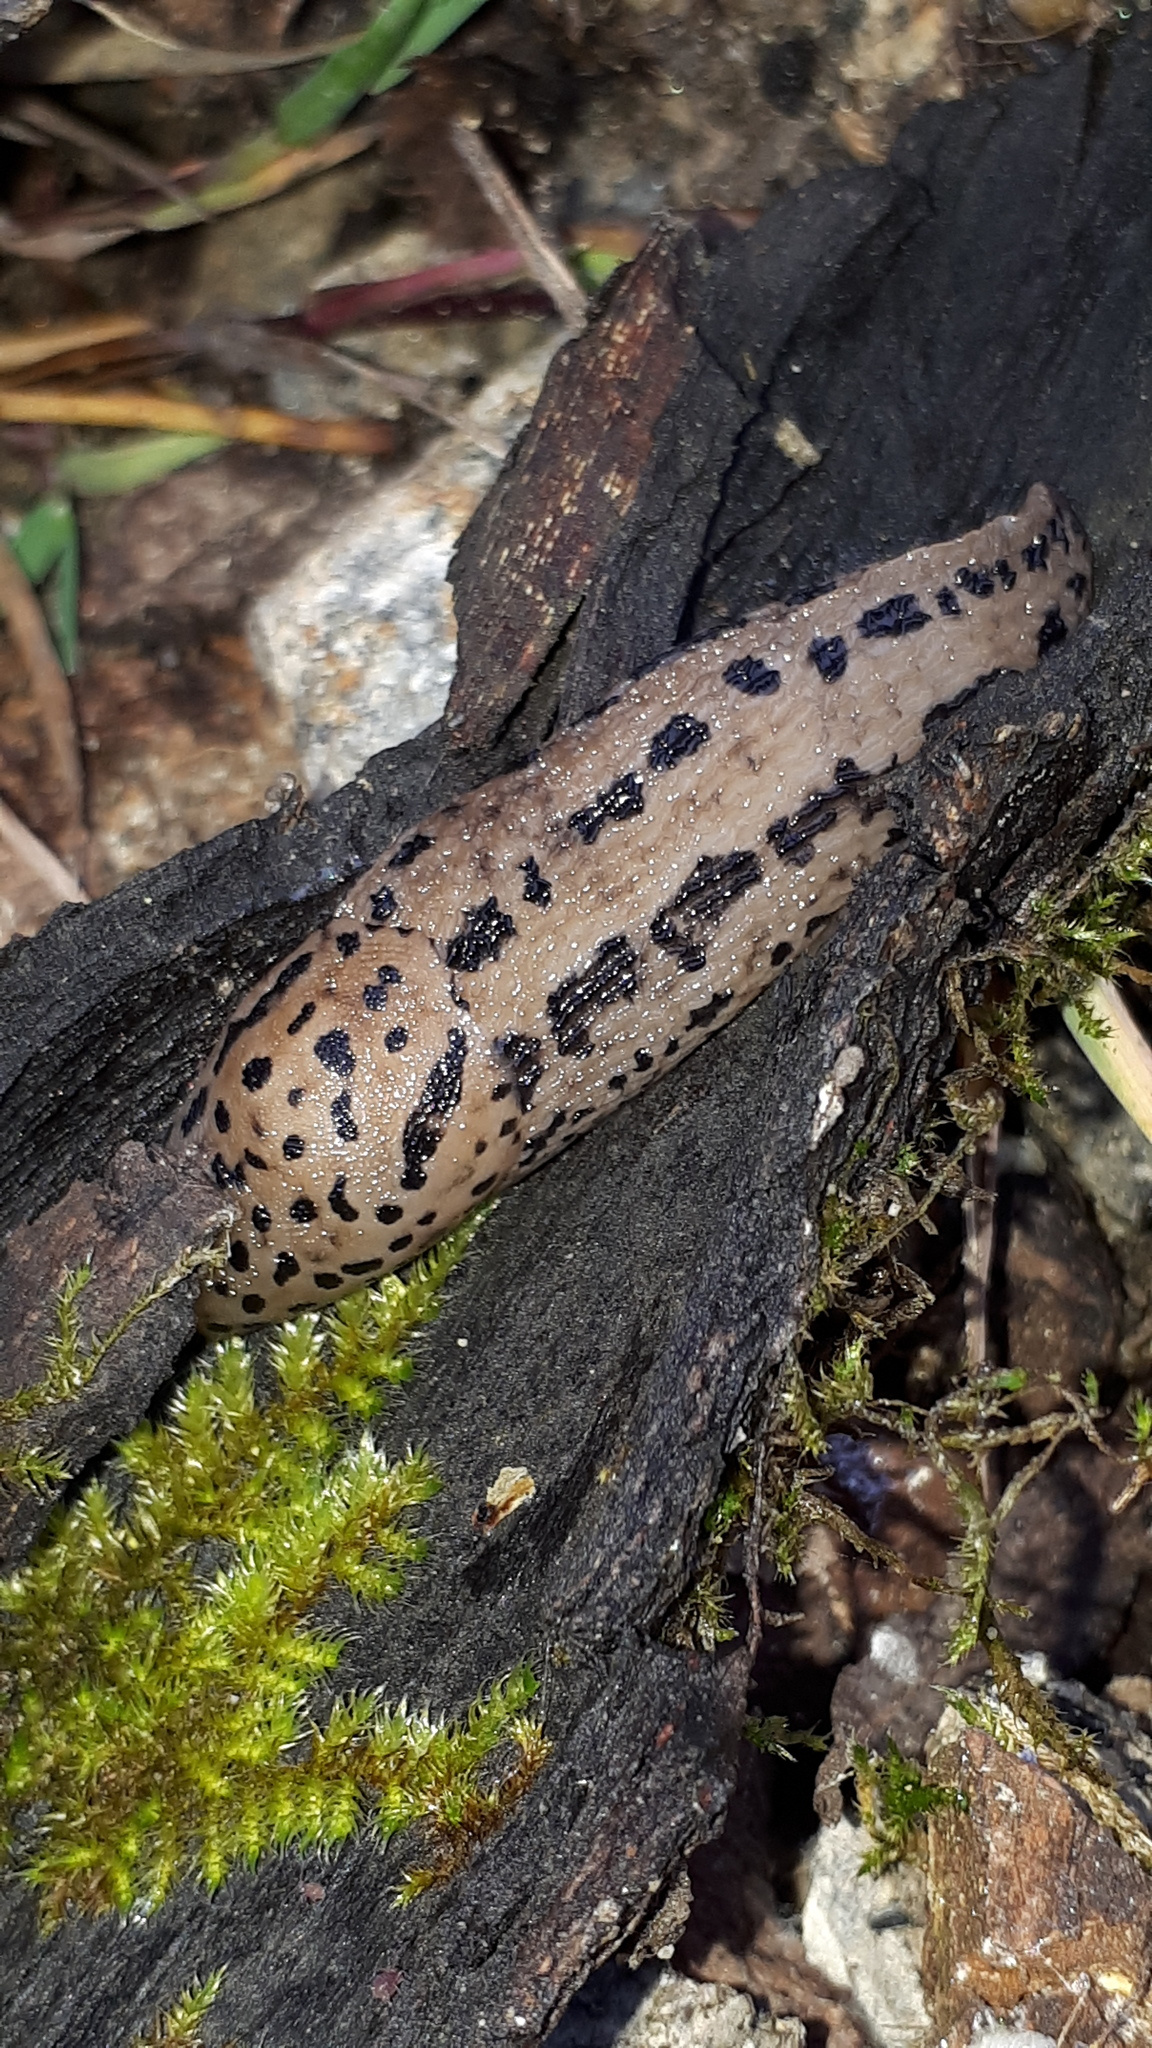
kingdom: Animalia
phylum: Mollusca
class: Gastropoda
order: Stylommatophora
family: Limacidae
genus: Limax
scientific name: Limax maximus
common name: Great grey slug
